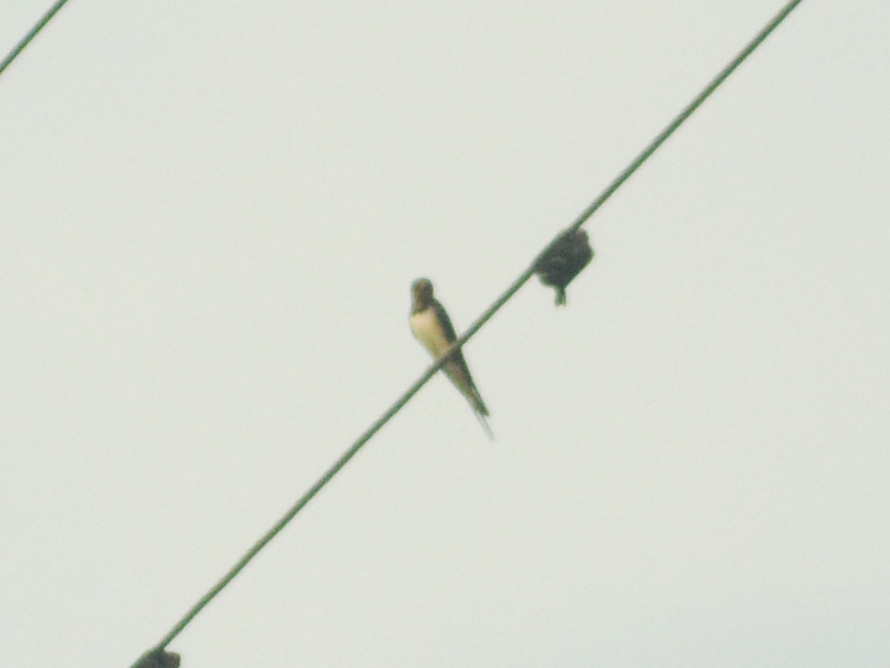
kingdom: Animalia
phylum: Chordata
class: Aves
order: Passeriformes
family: Hirundinidae
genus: Hirundo
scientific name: Hirundo rustica
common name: Barn swallow
